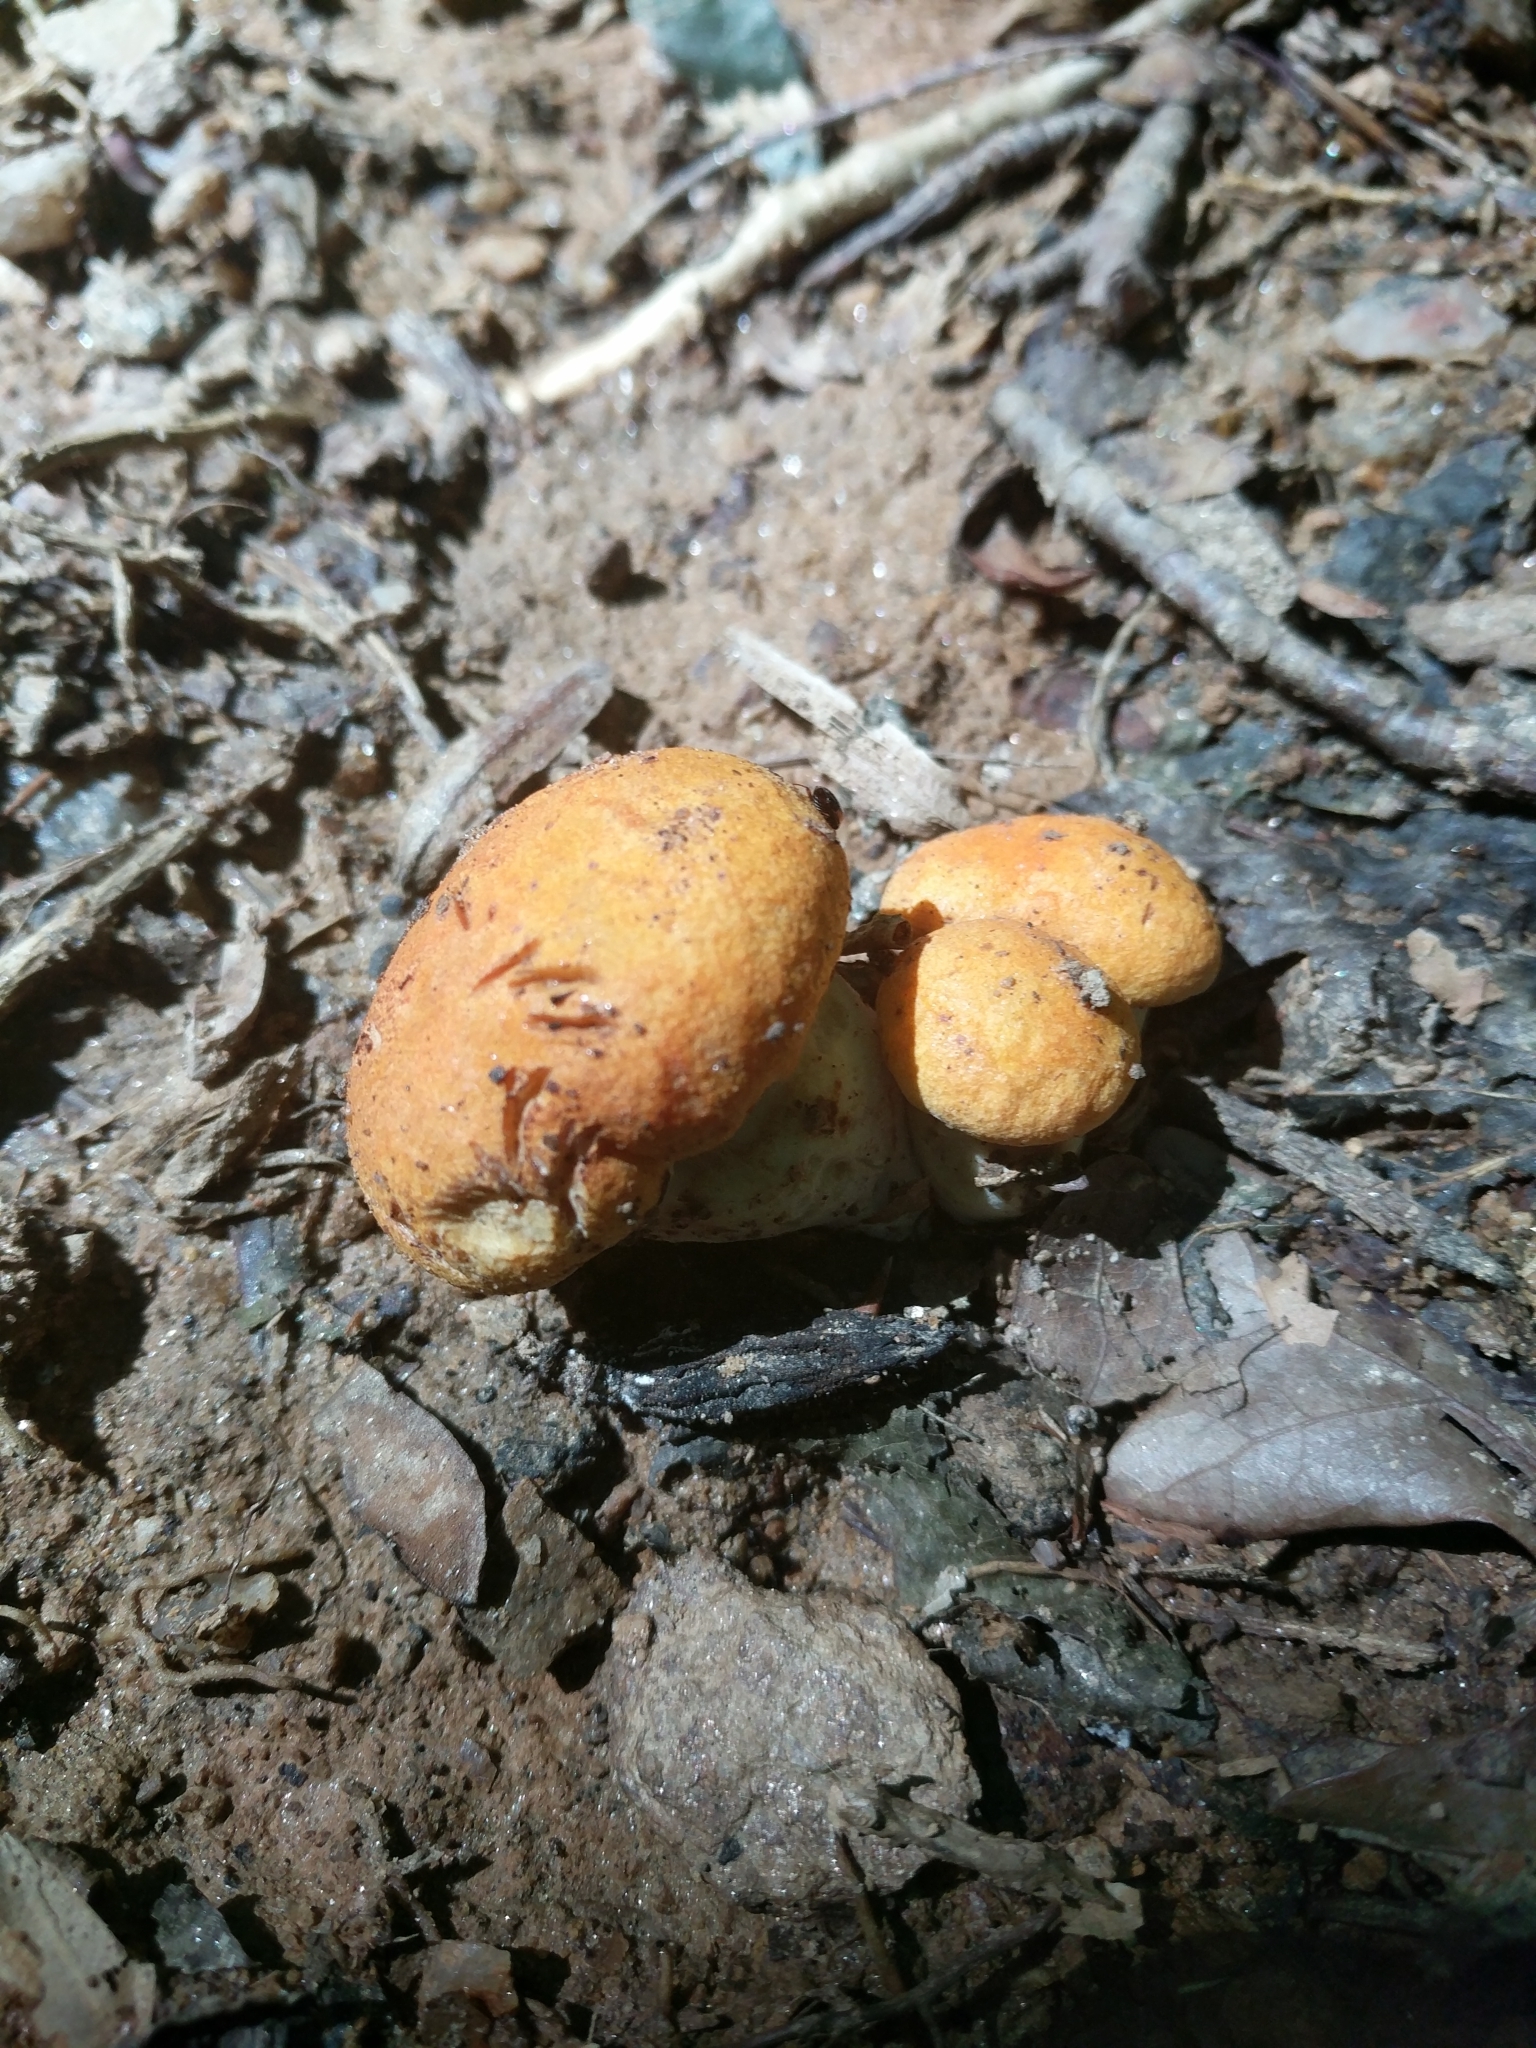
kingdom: Fungi
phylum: Basidiomycota
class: Agaricomycetes
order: Boletales
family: Boletaceae
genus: Tylopilus
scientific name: Tylopilus balloui
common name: Burnt-orange bolete
